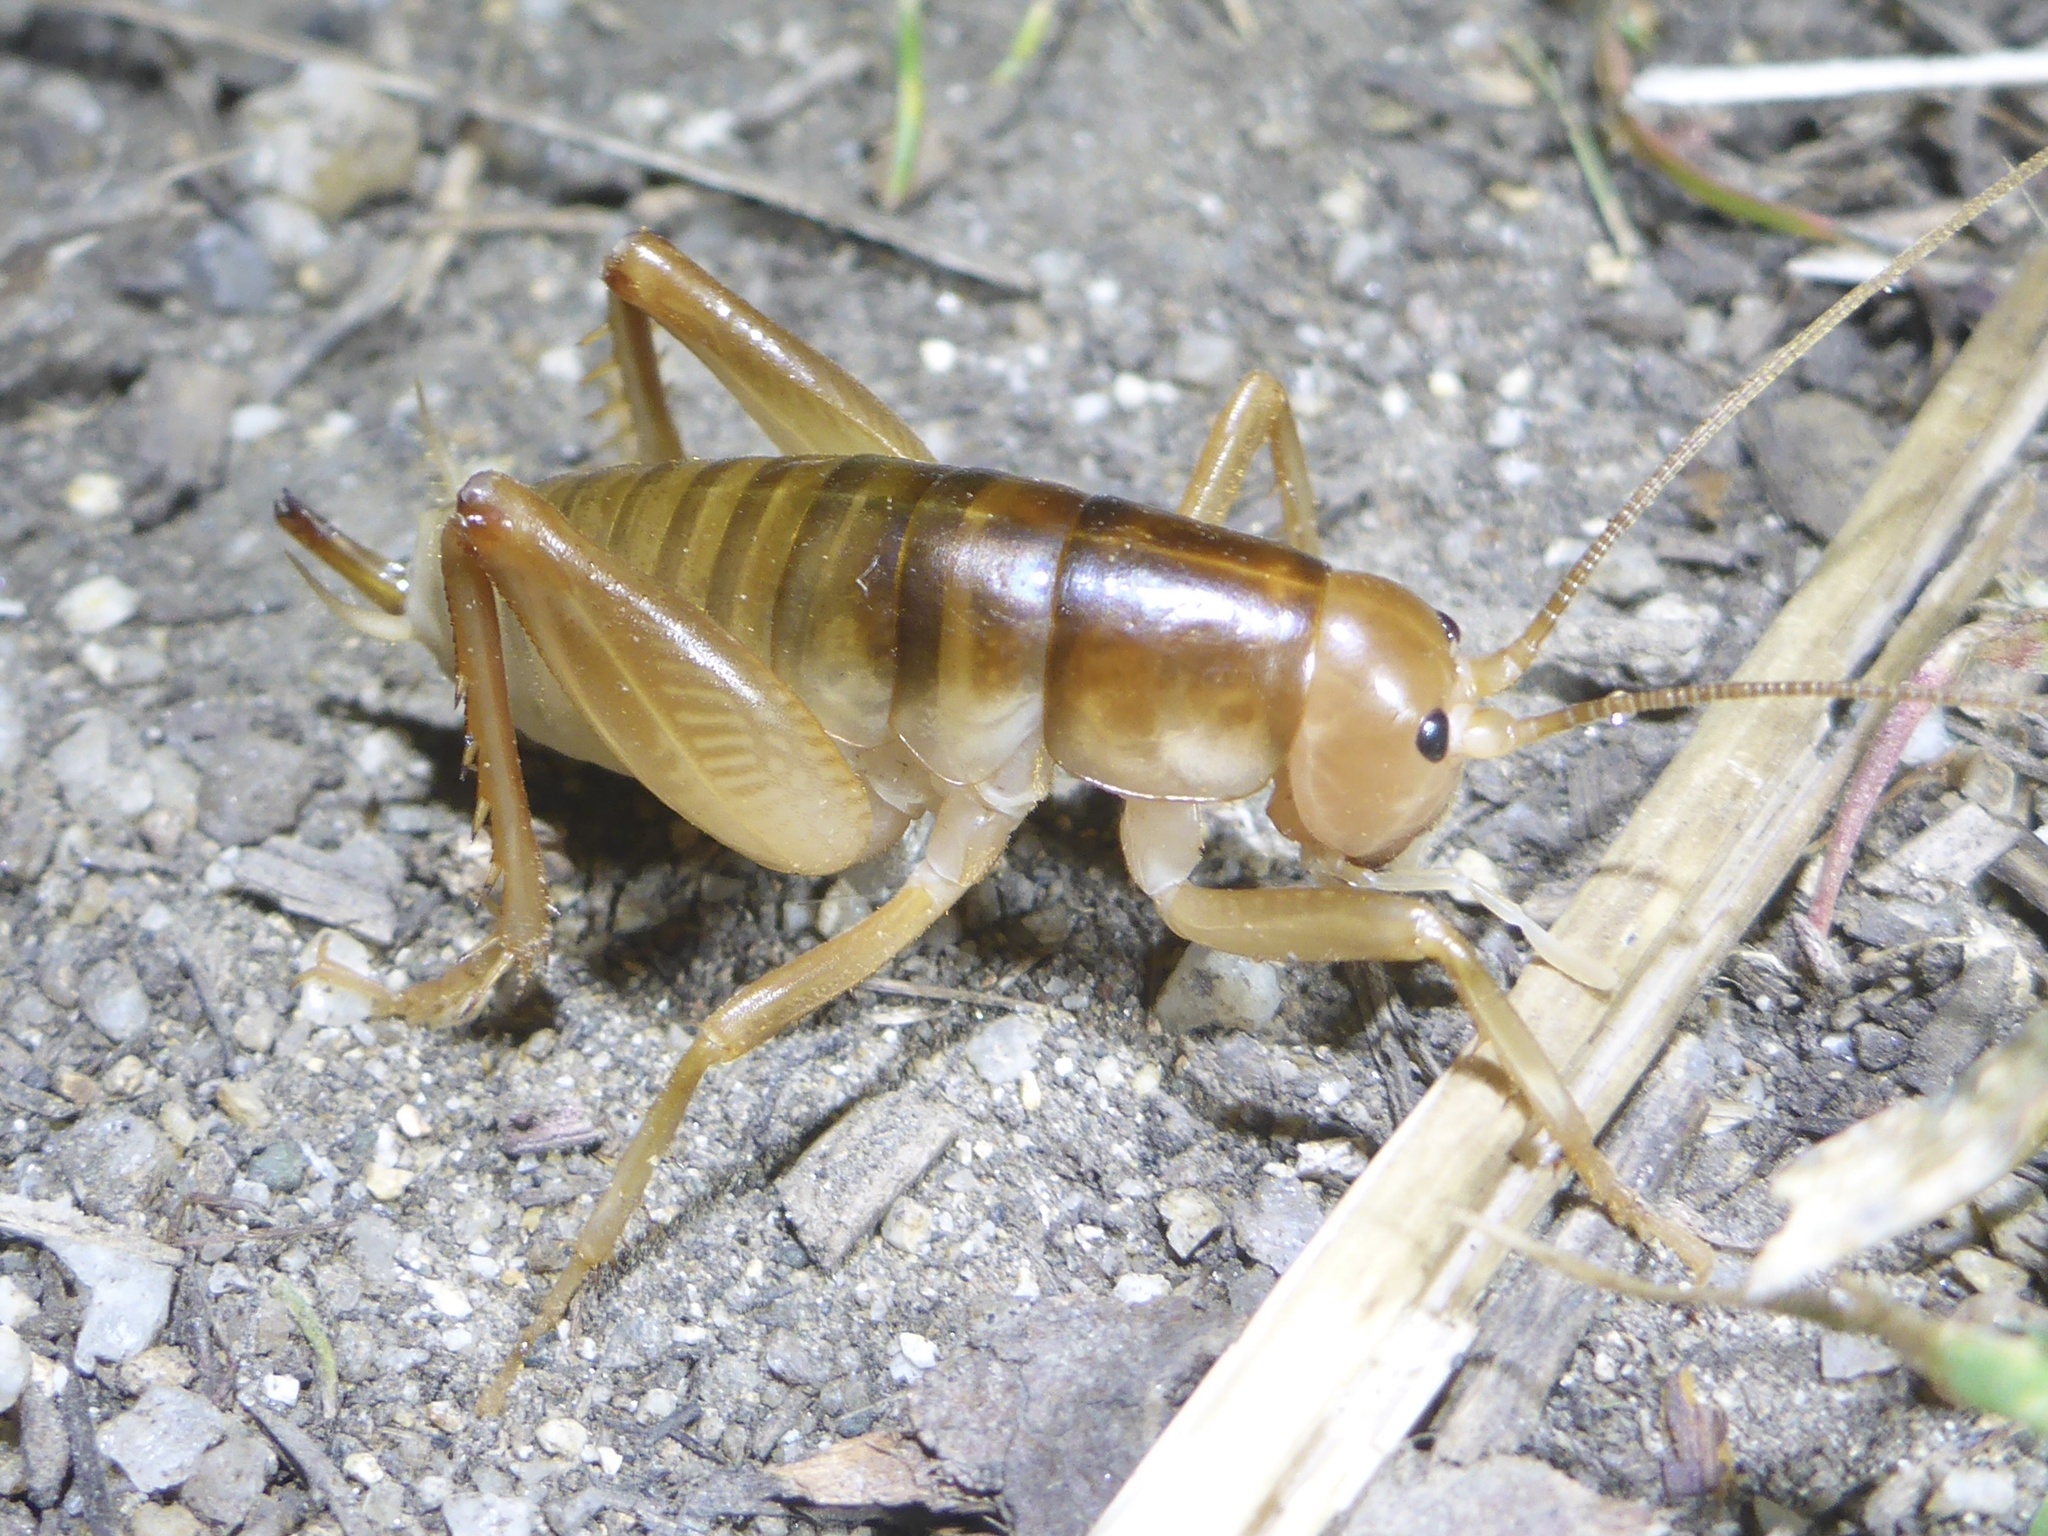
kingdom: Animalia
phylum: Arthropoda
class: Insecta
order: Orthoptera
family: Rhaphidophoridae
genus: Ceuthophilus
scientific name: Ceuthophilus californianus
